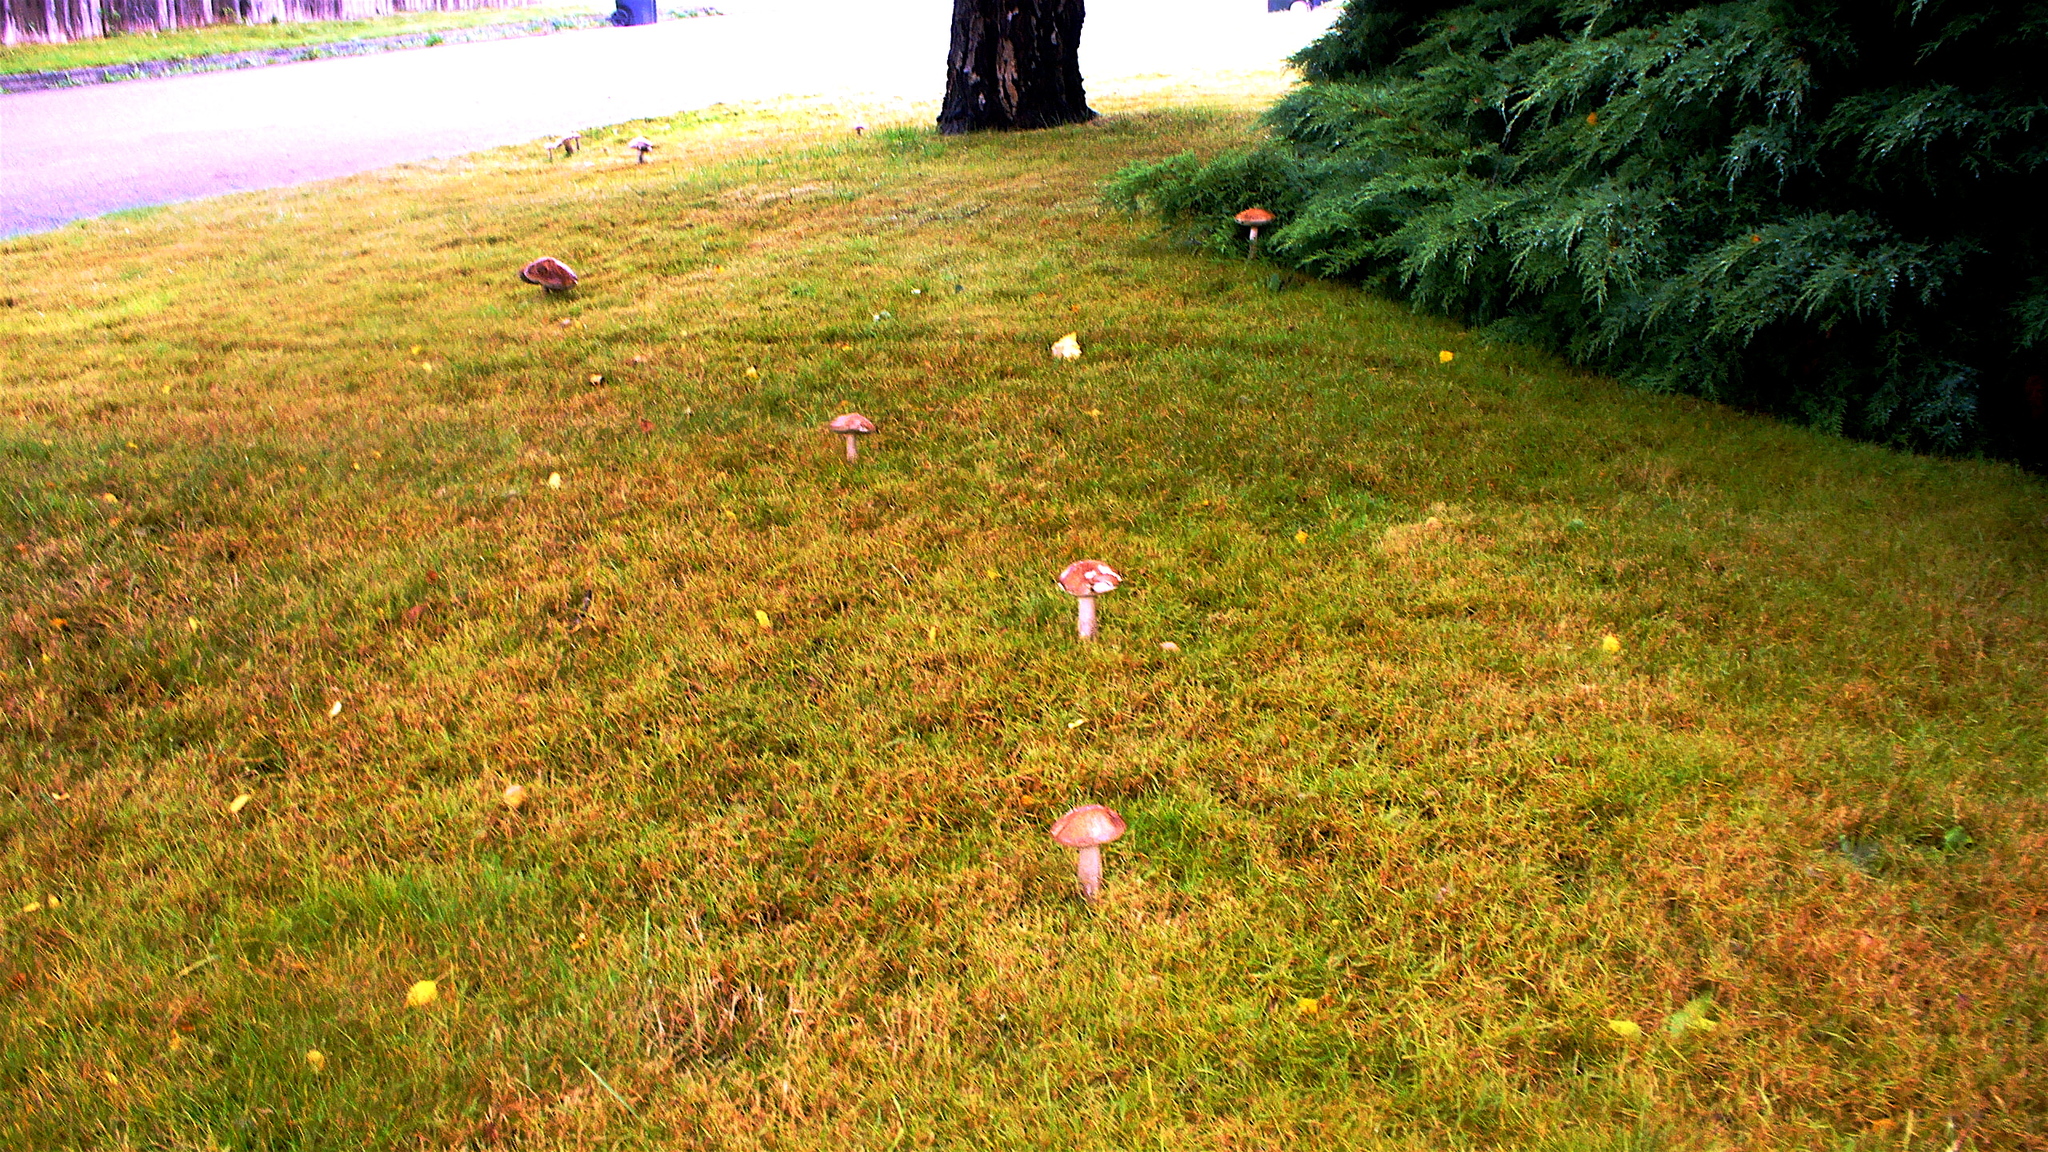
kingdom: Fungi
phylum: Basidiomycota
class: Agaricomycetes
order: Boletales
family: Boletaceae
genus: Leccinum
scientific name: Leccinum scabrum
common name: Blushing bolete
